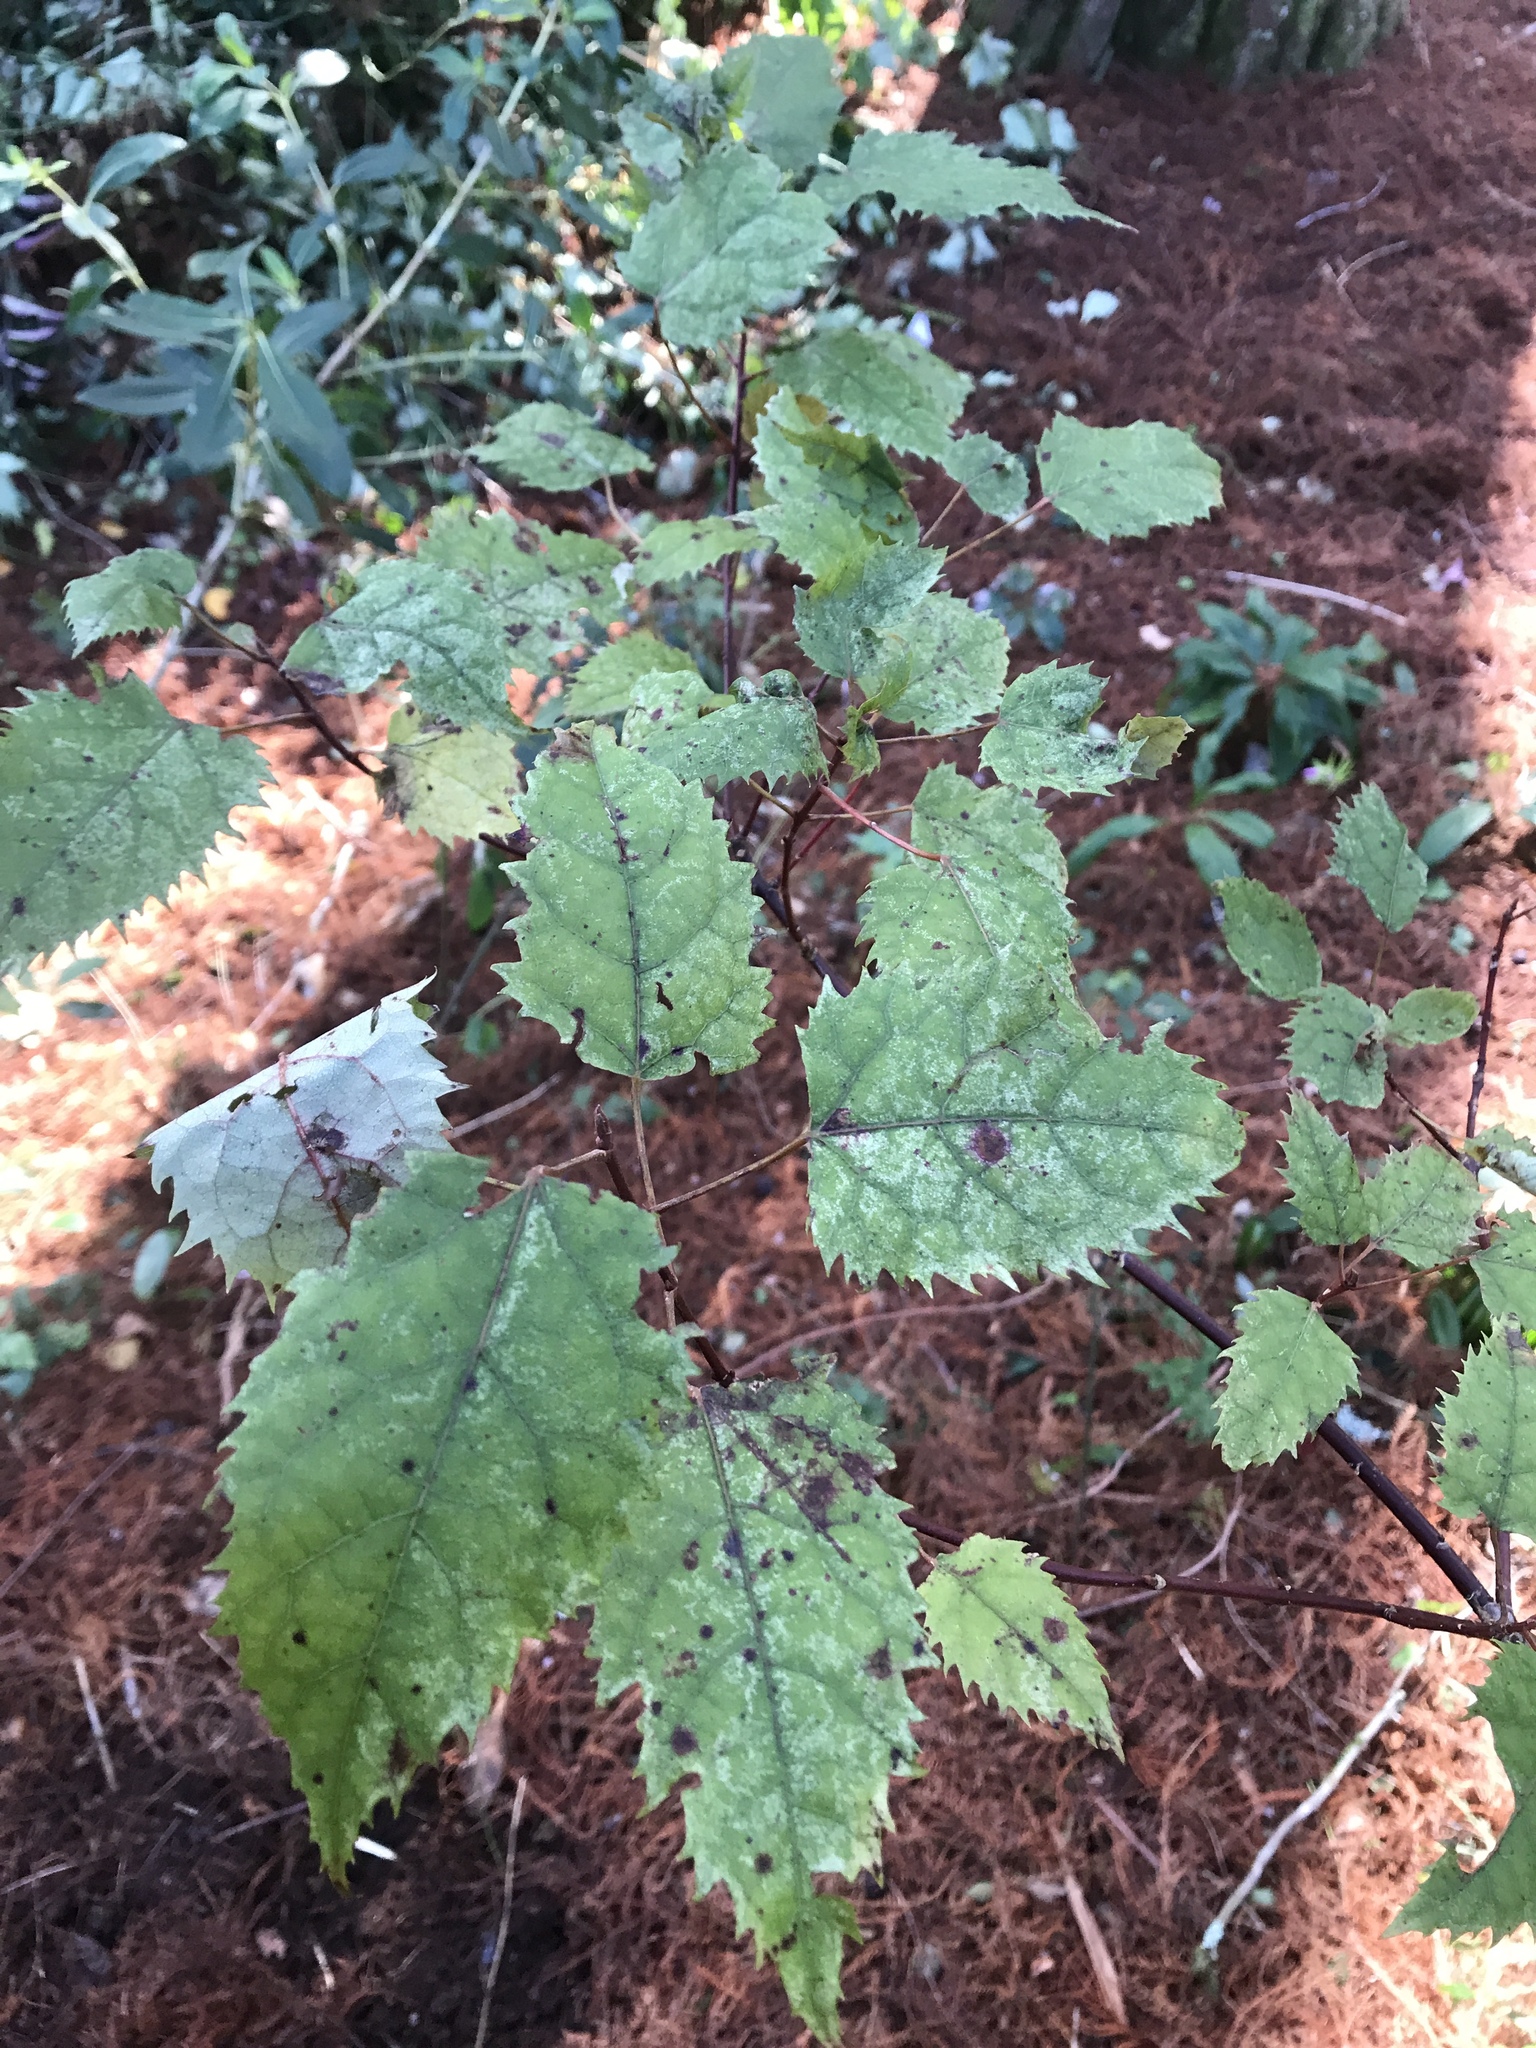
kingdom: Plantae
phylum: Tracheophyta
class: Magnoliopsida
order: Oxalidales
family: Elaeocarpaceae
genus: Aristotelia
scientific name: Aristotelia serrata
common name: New zealand wineberry
